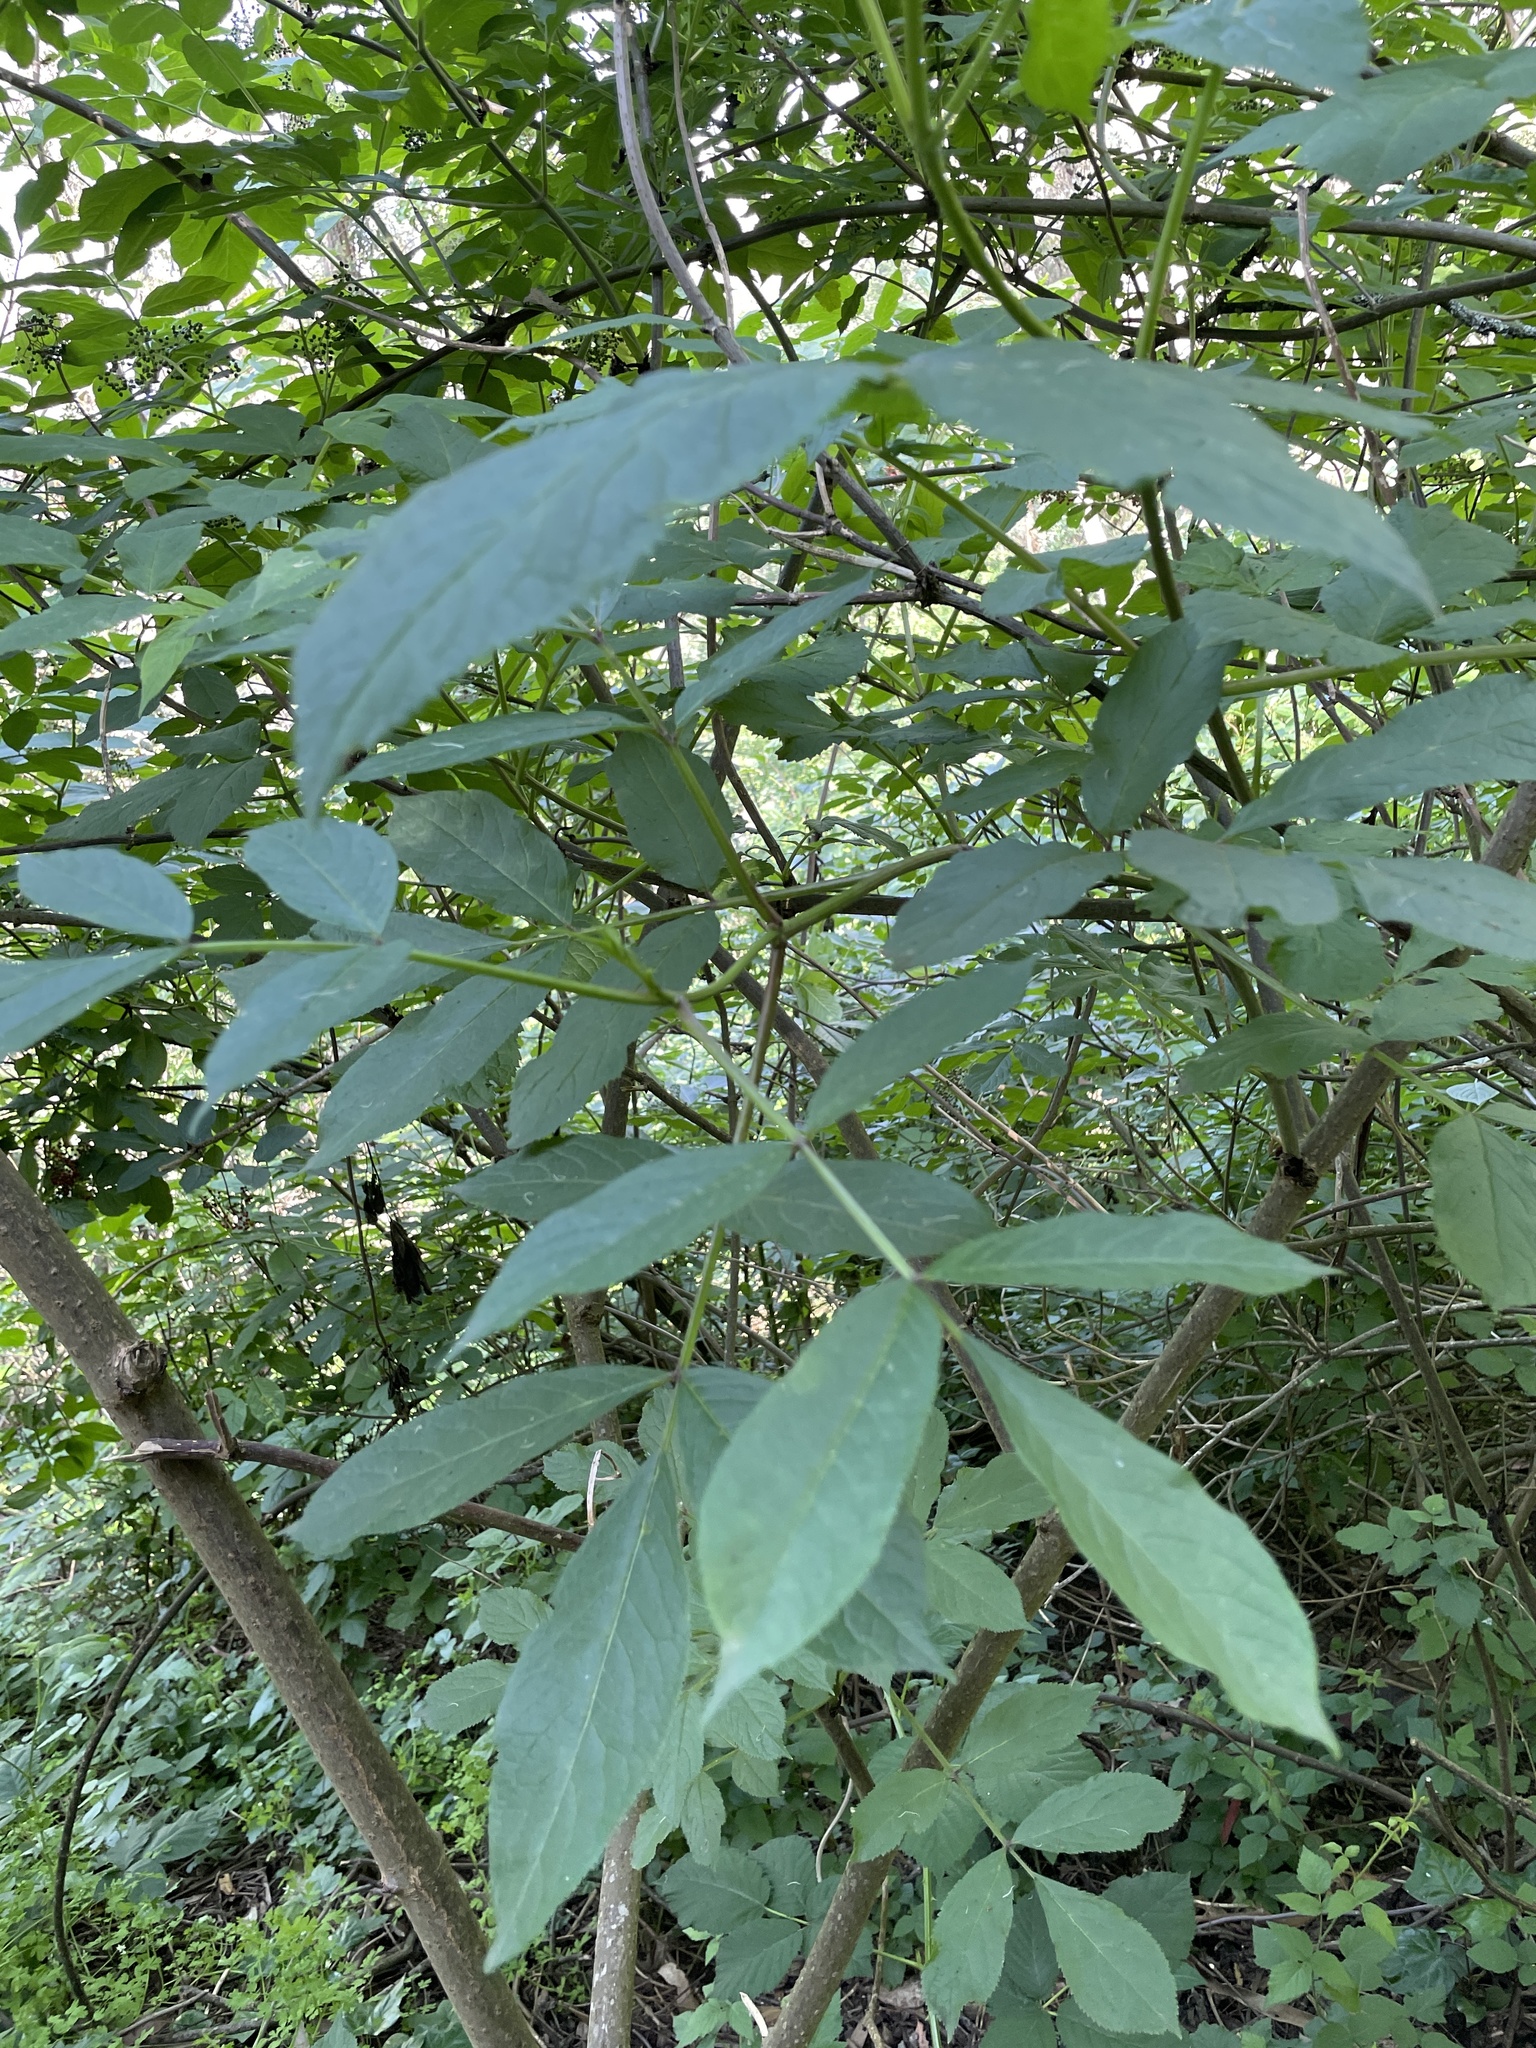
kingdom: Plantae
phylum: Tracheophyta
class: Magnoliopsida
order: Dipsacales
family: Viburnaceae
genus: Sambucus
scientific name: Sambucus racemosa
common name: Red-berried elder
